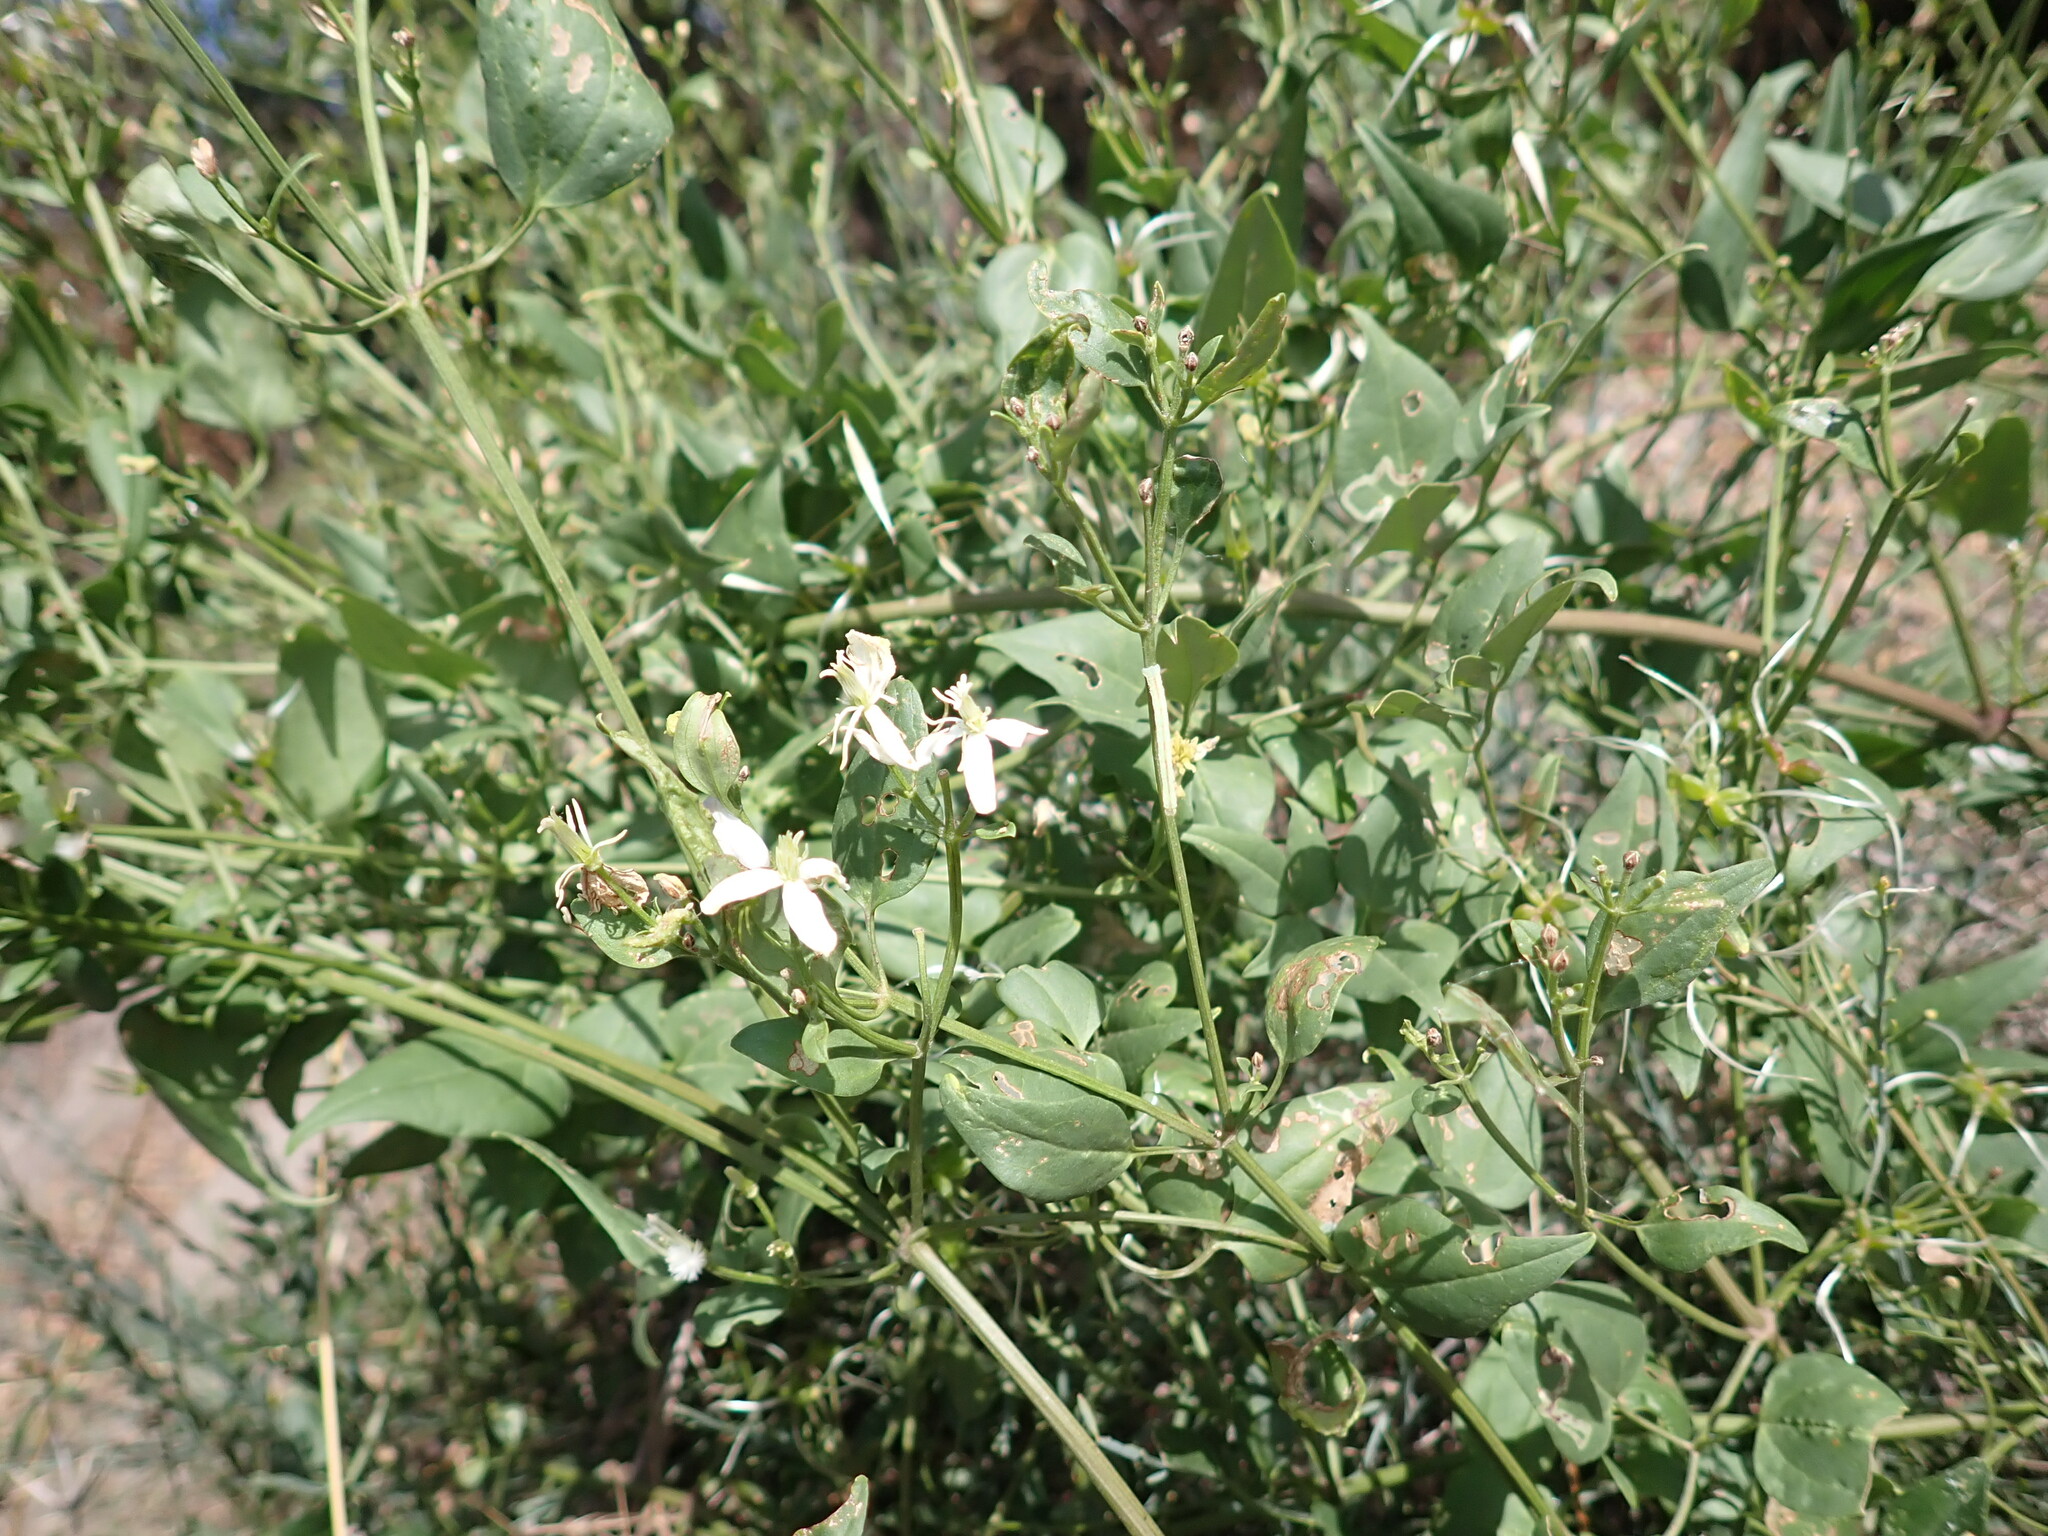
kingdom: Plantae
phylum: Tracheophyta
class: Magnoliopsida
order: Ranunculales
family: Ranunculaceae
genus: Clematis
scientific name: Clematis flammula
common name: Virgin's-bower
